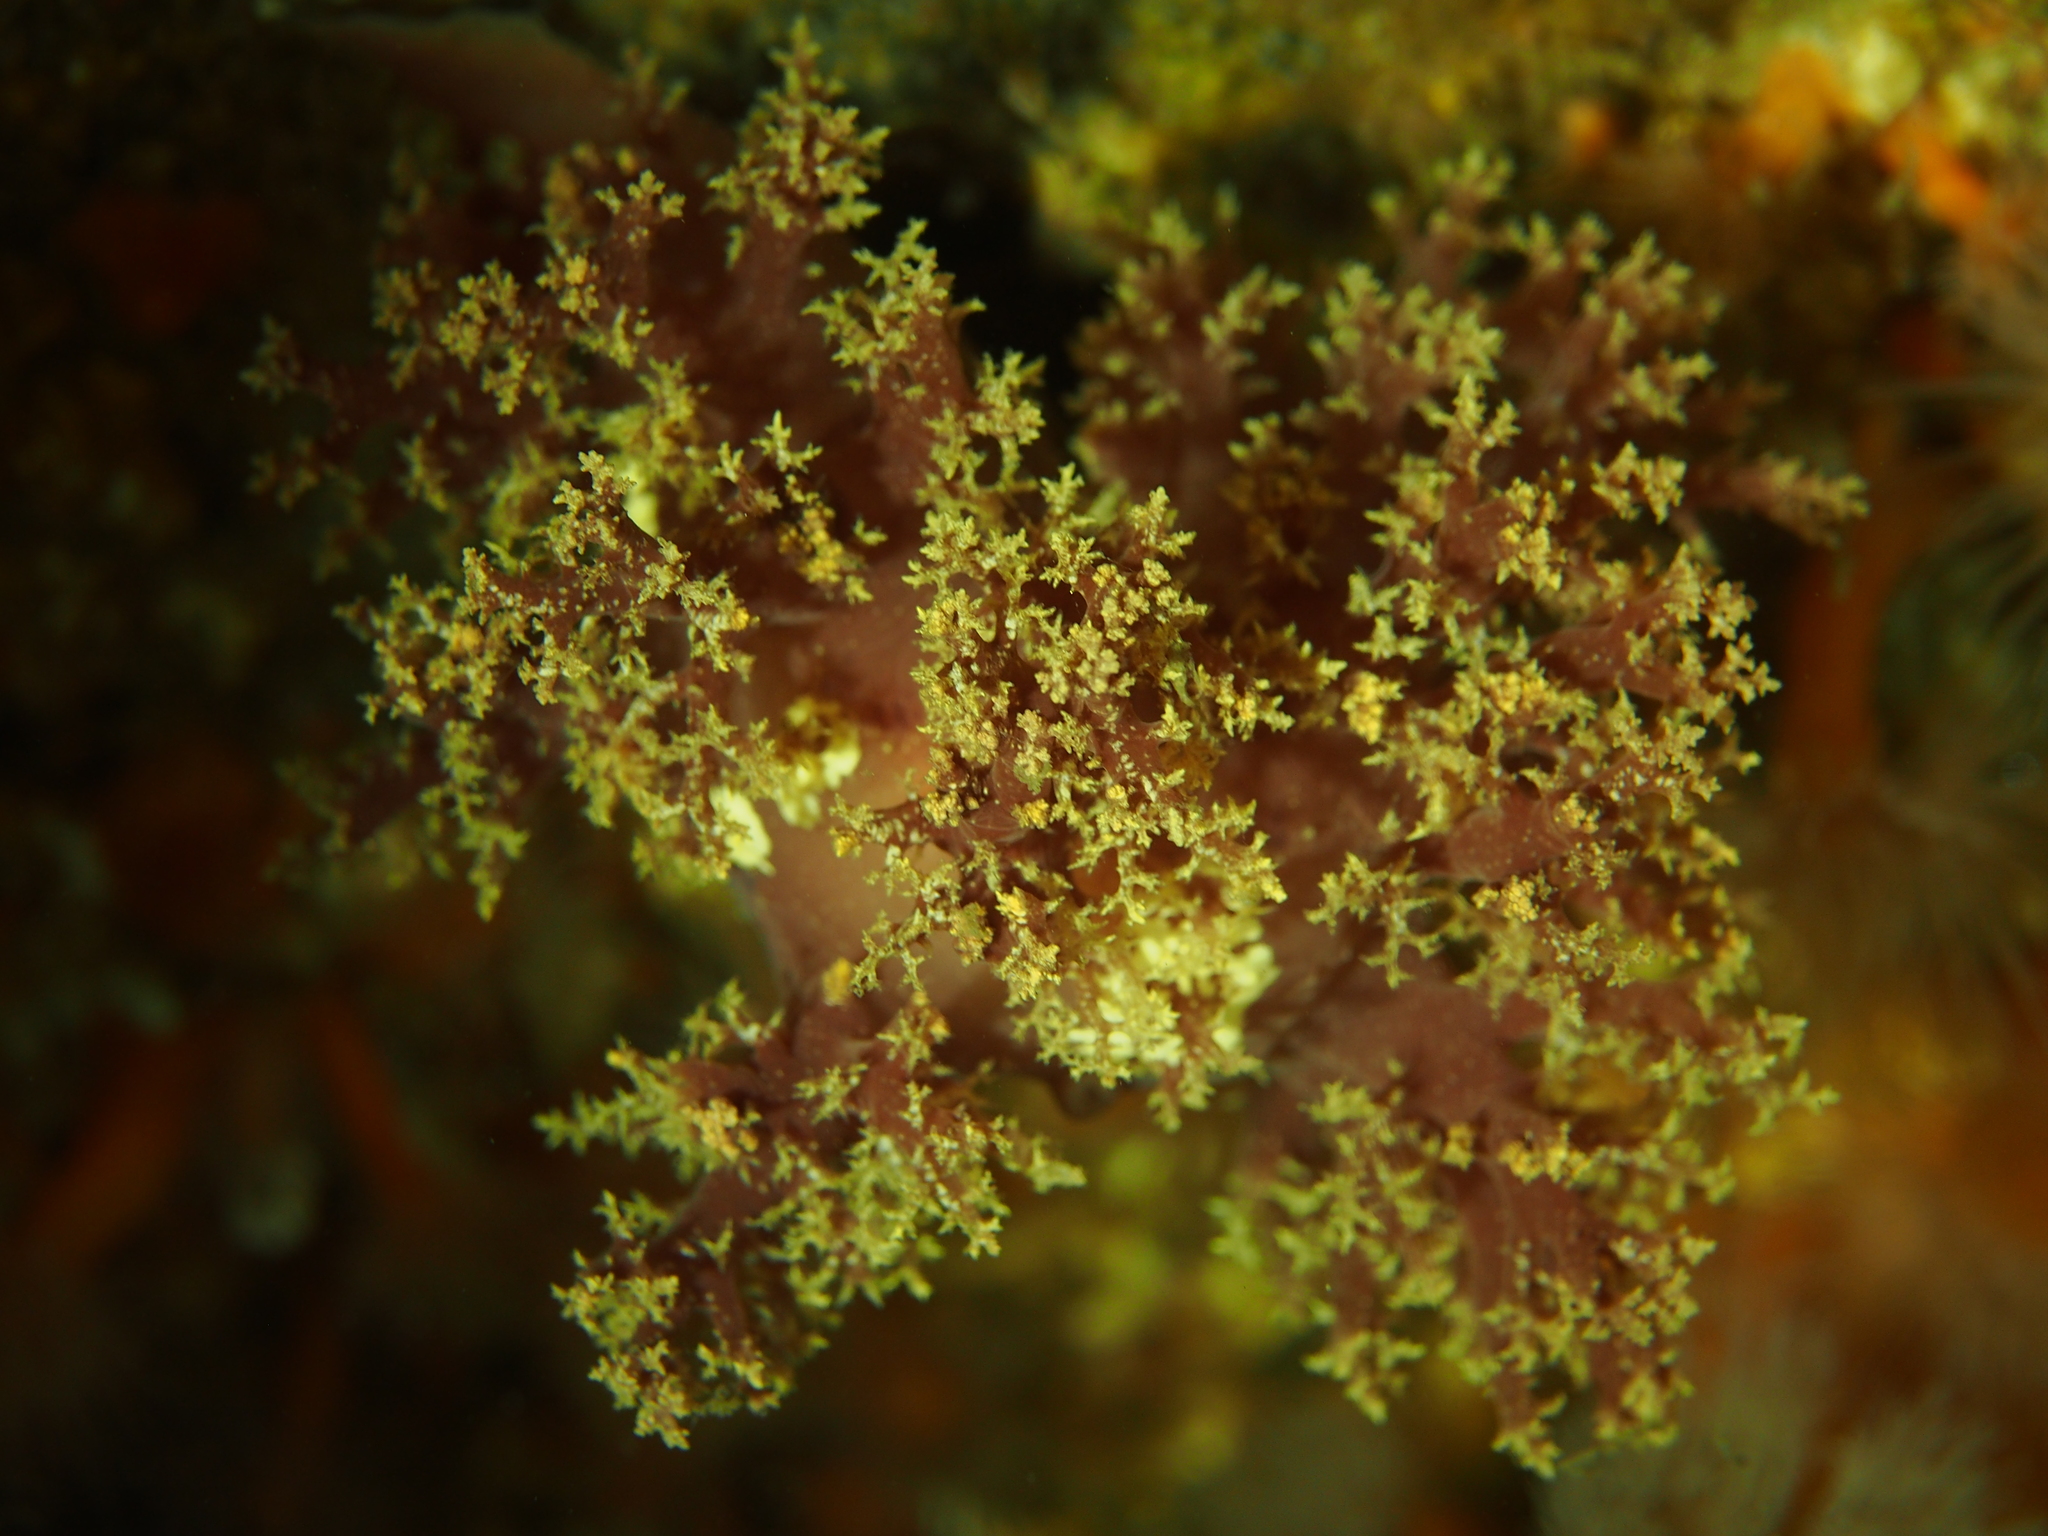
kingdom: Animalia
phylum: Mollusca
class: Gastropoda
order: Nudibranchia
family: Dendronotidae
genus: Dendronotus
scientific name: Dendronotus lacteus
